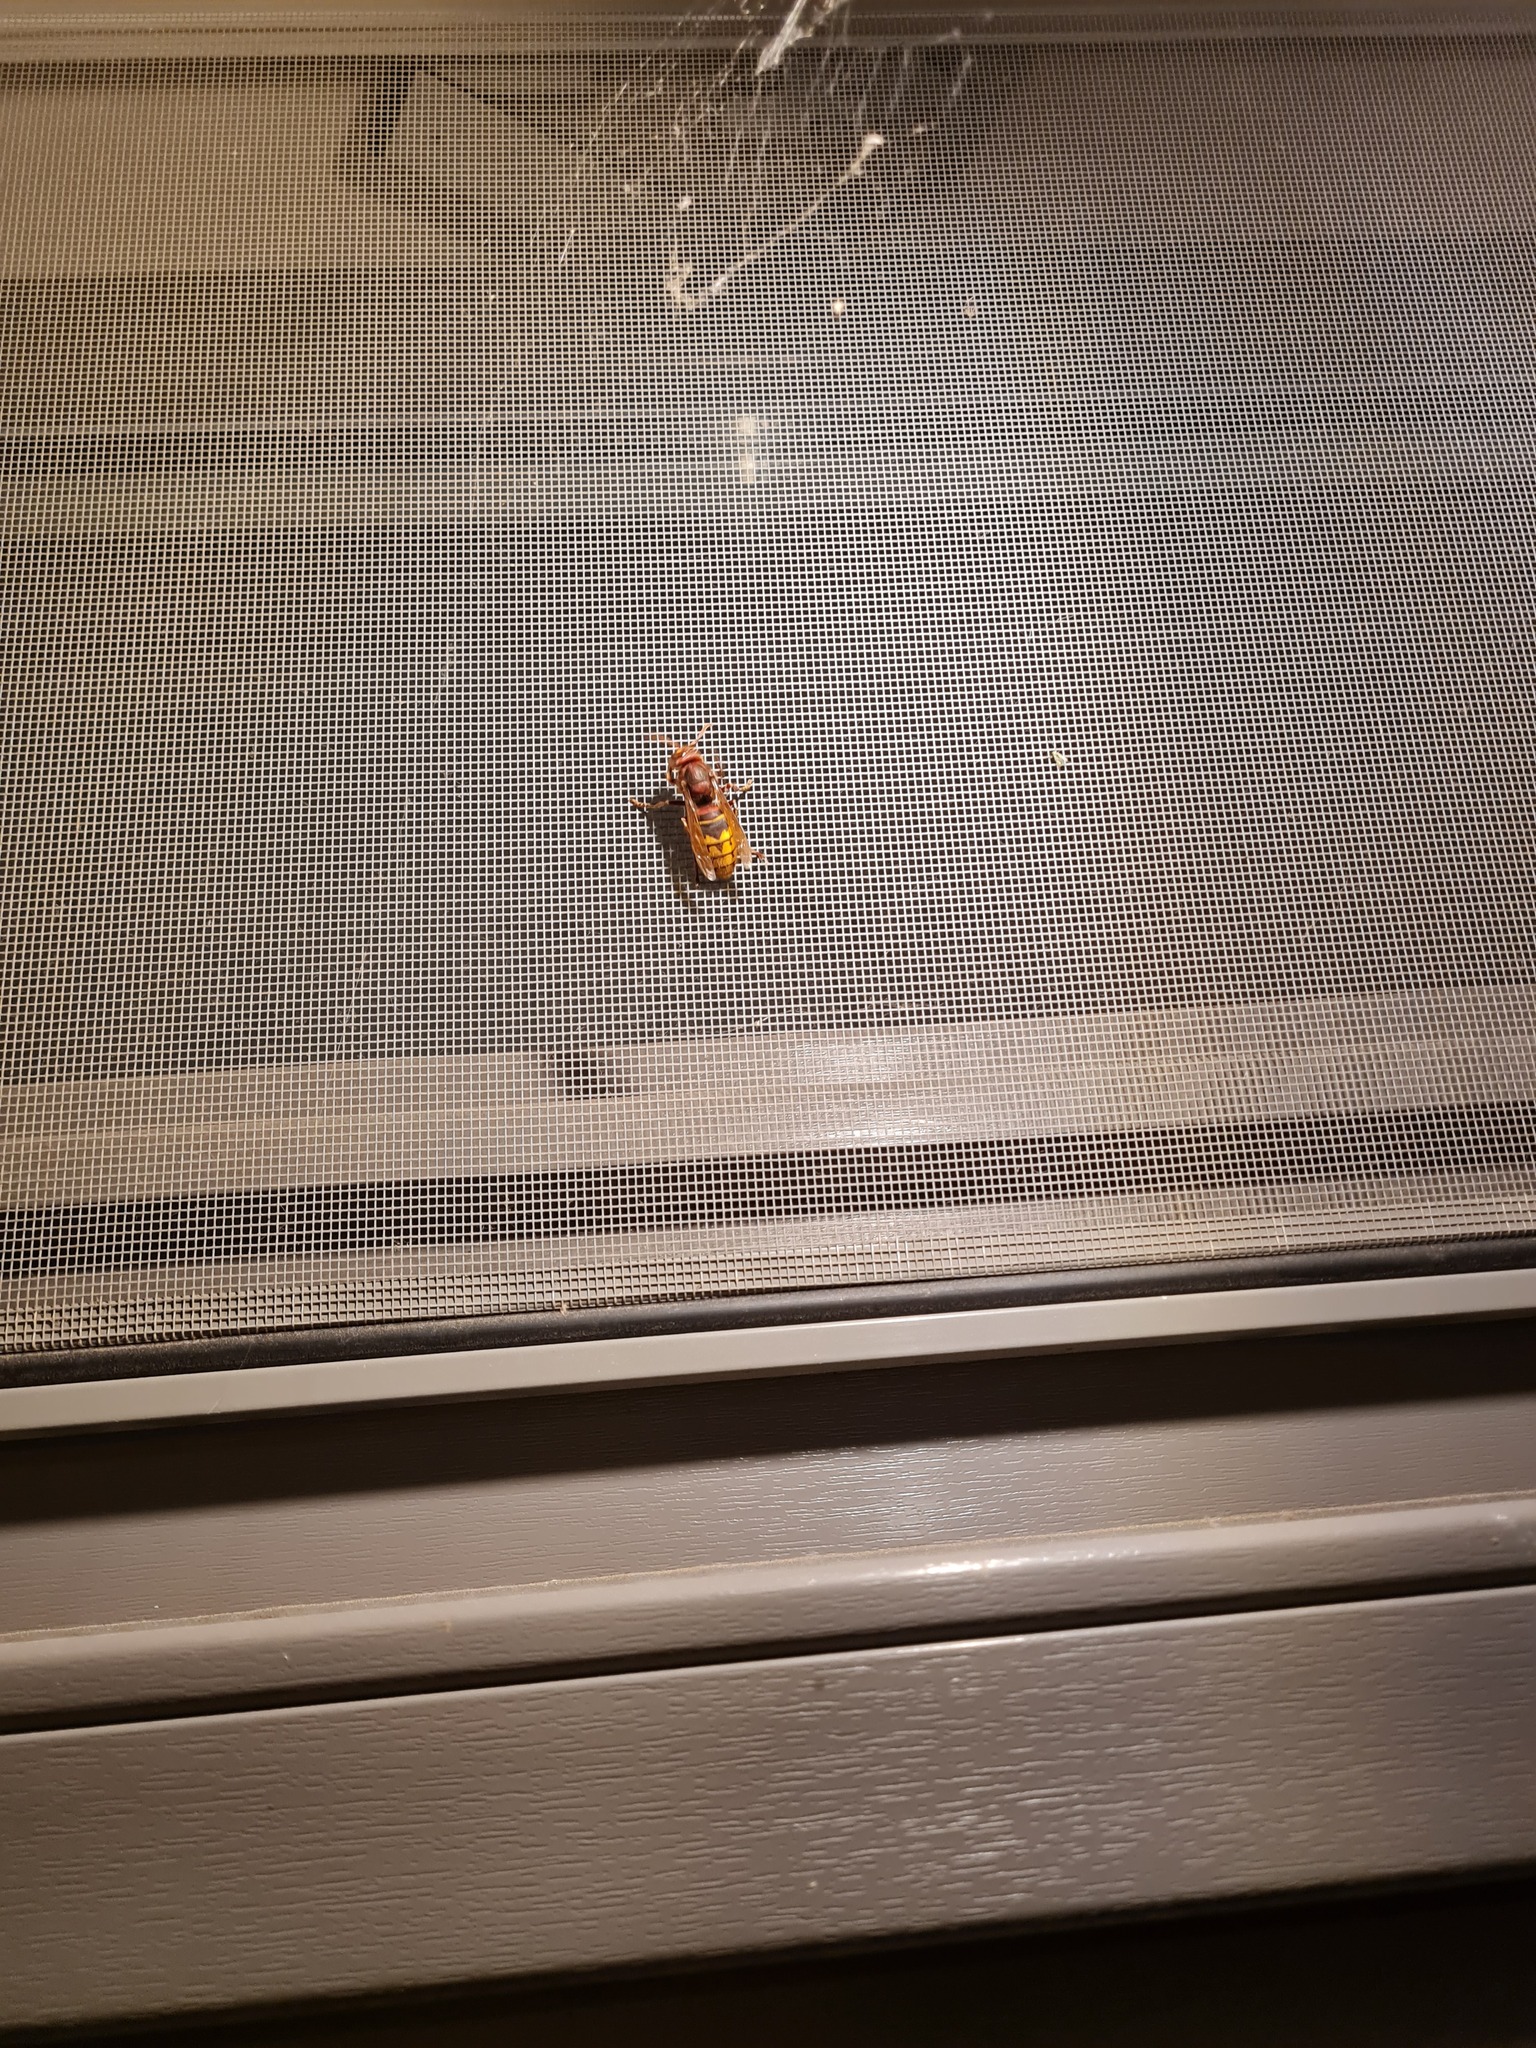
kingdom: Animalia
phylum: Arthropoda
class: Insecta
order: Hymenoptera
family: Vespidae
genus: Vespa
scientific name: Vespa crabro
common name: Hornet
